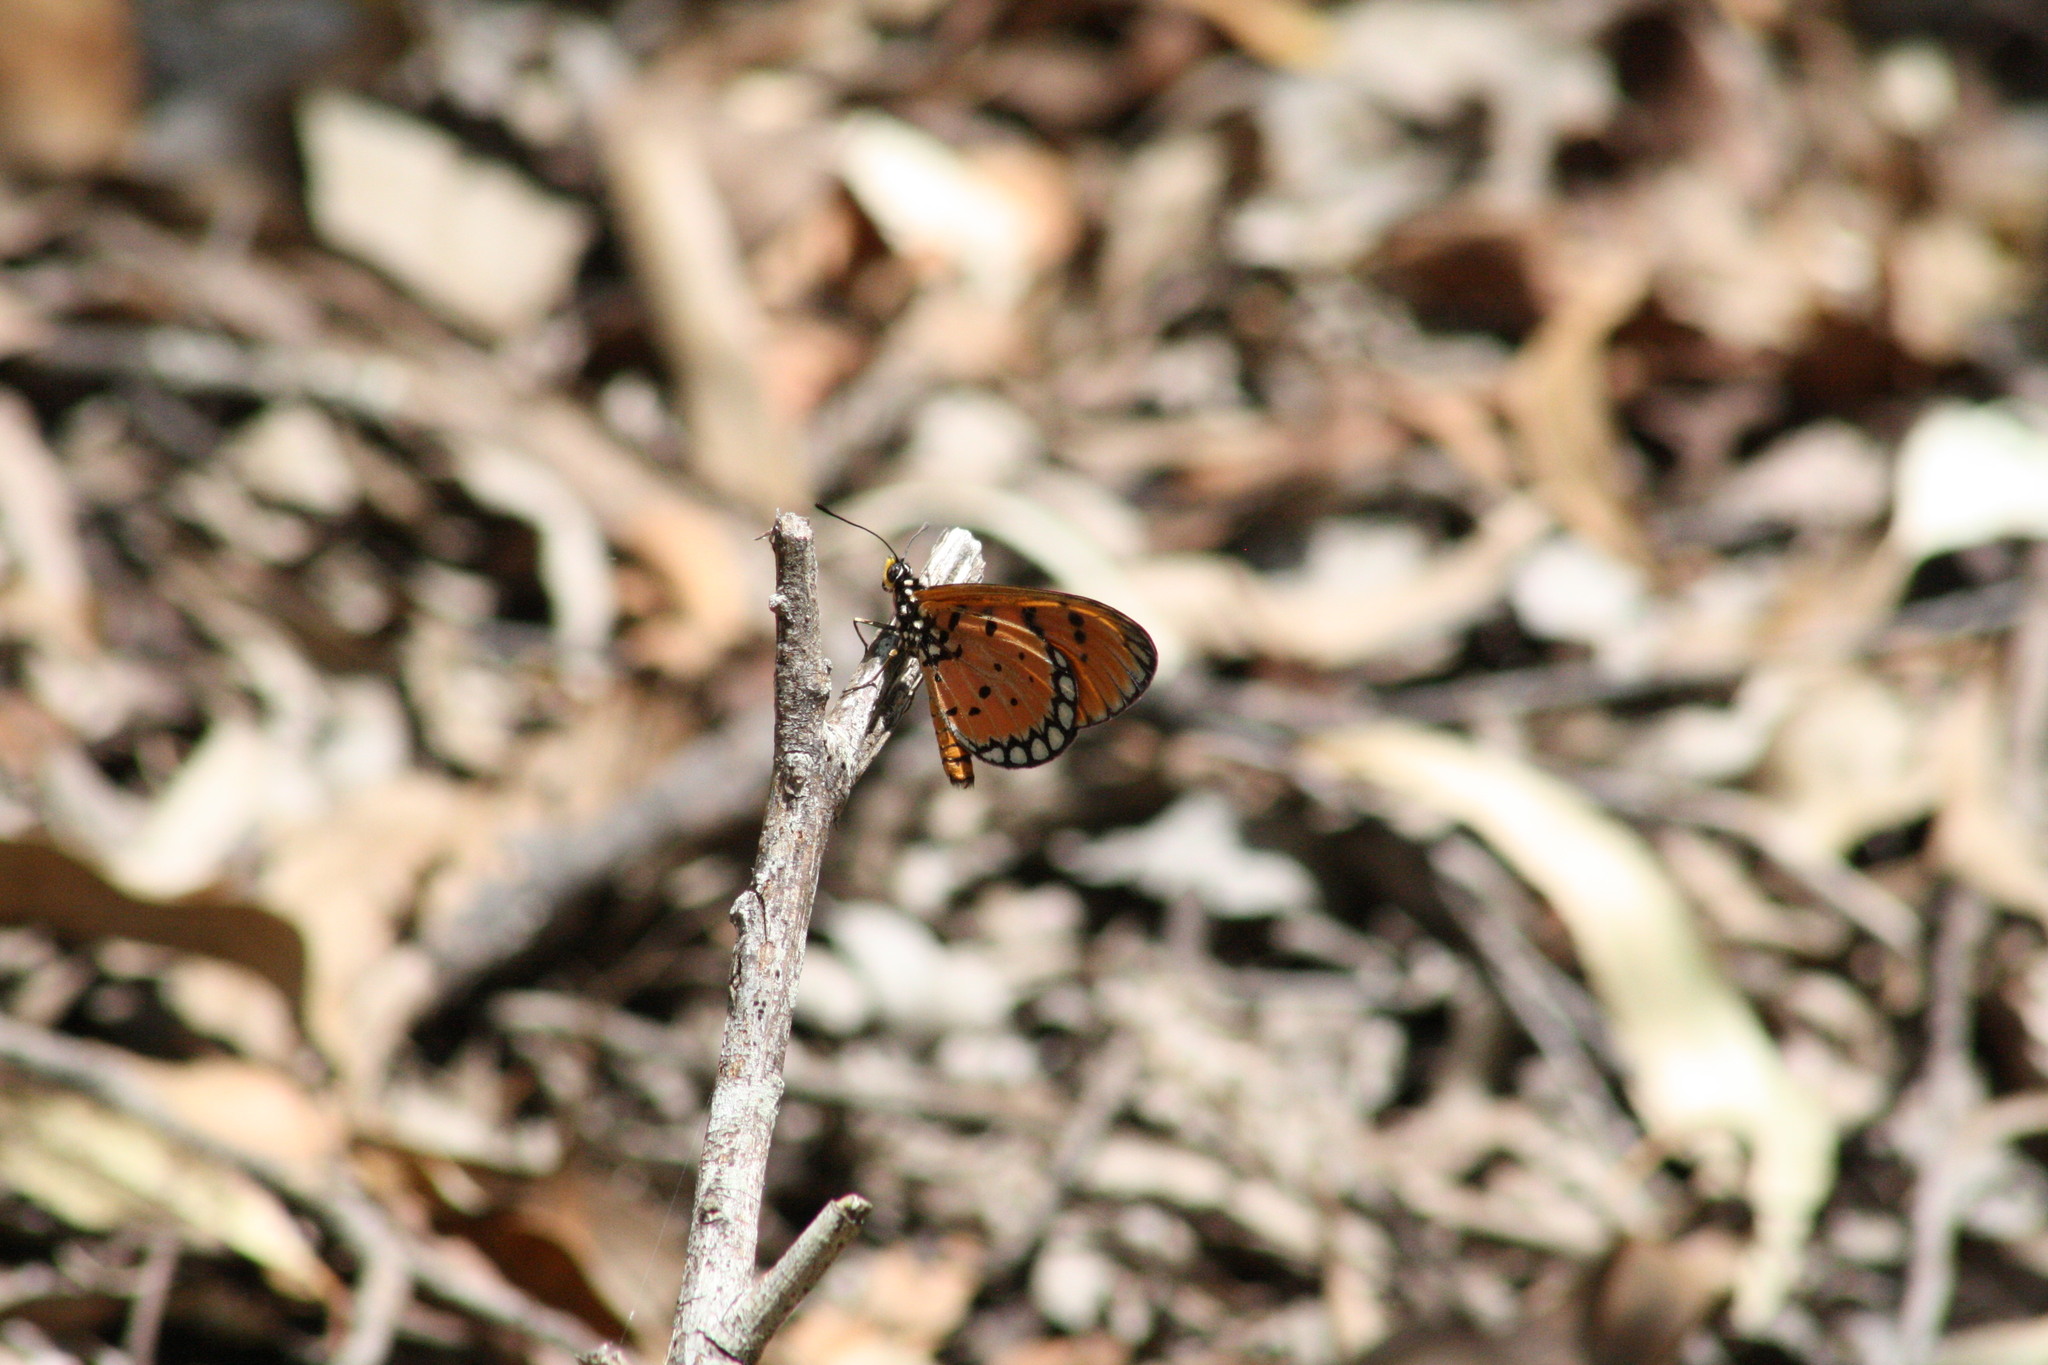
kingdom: Animalia
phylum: Arthropoda
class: Insecta
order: Lepidoptera
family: Nymphalidae
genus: Acraea
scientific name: Acraea terpsicore
